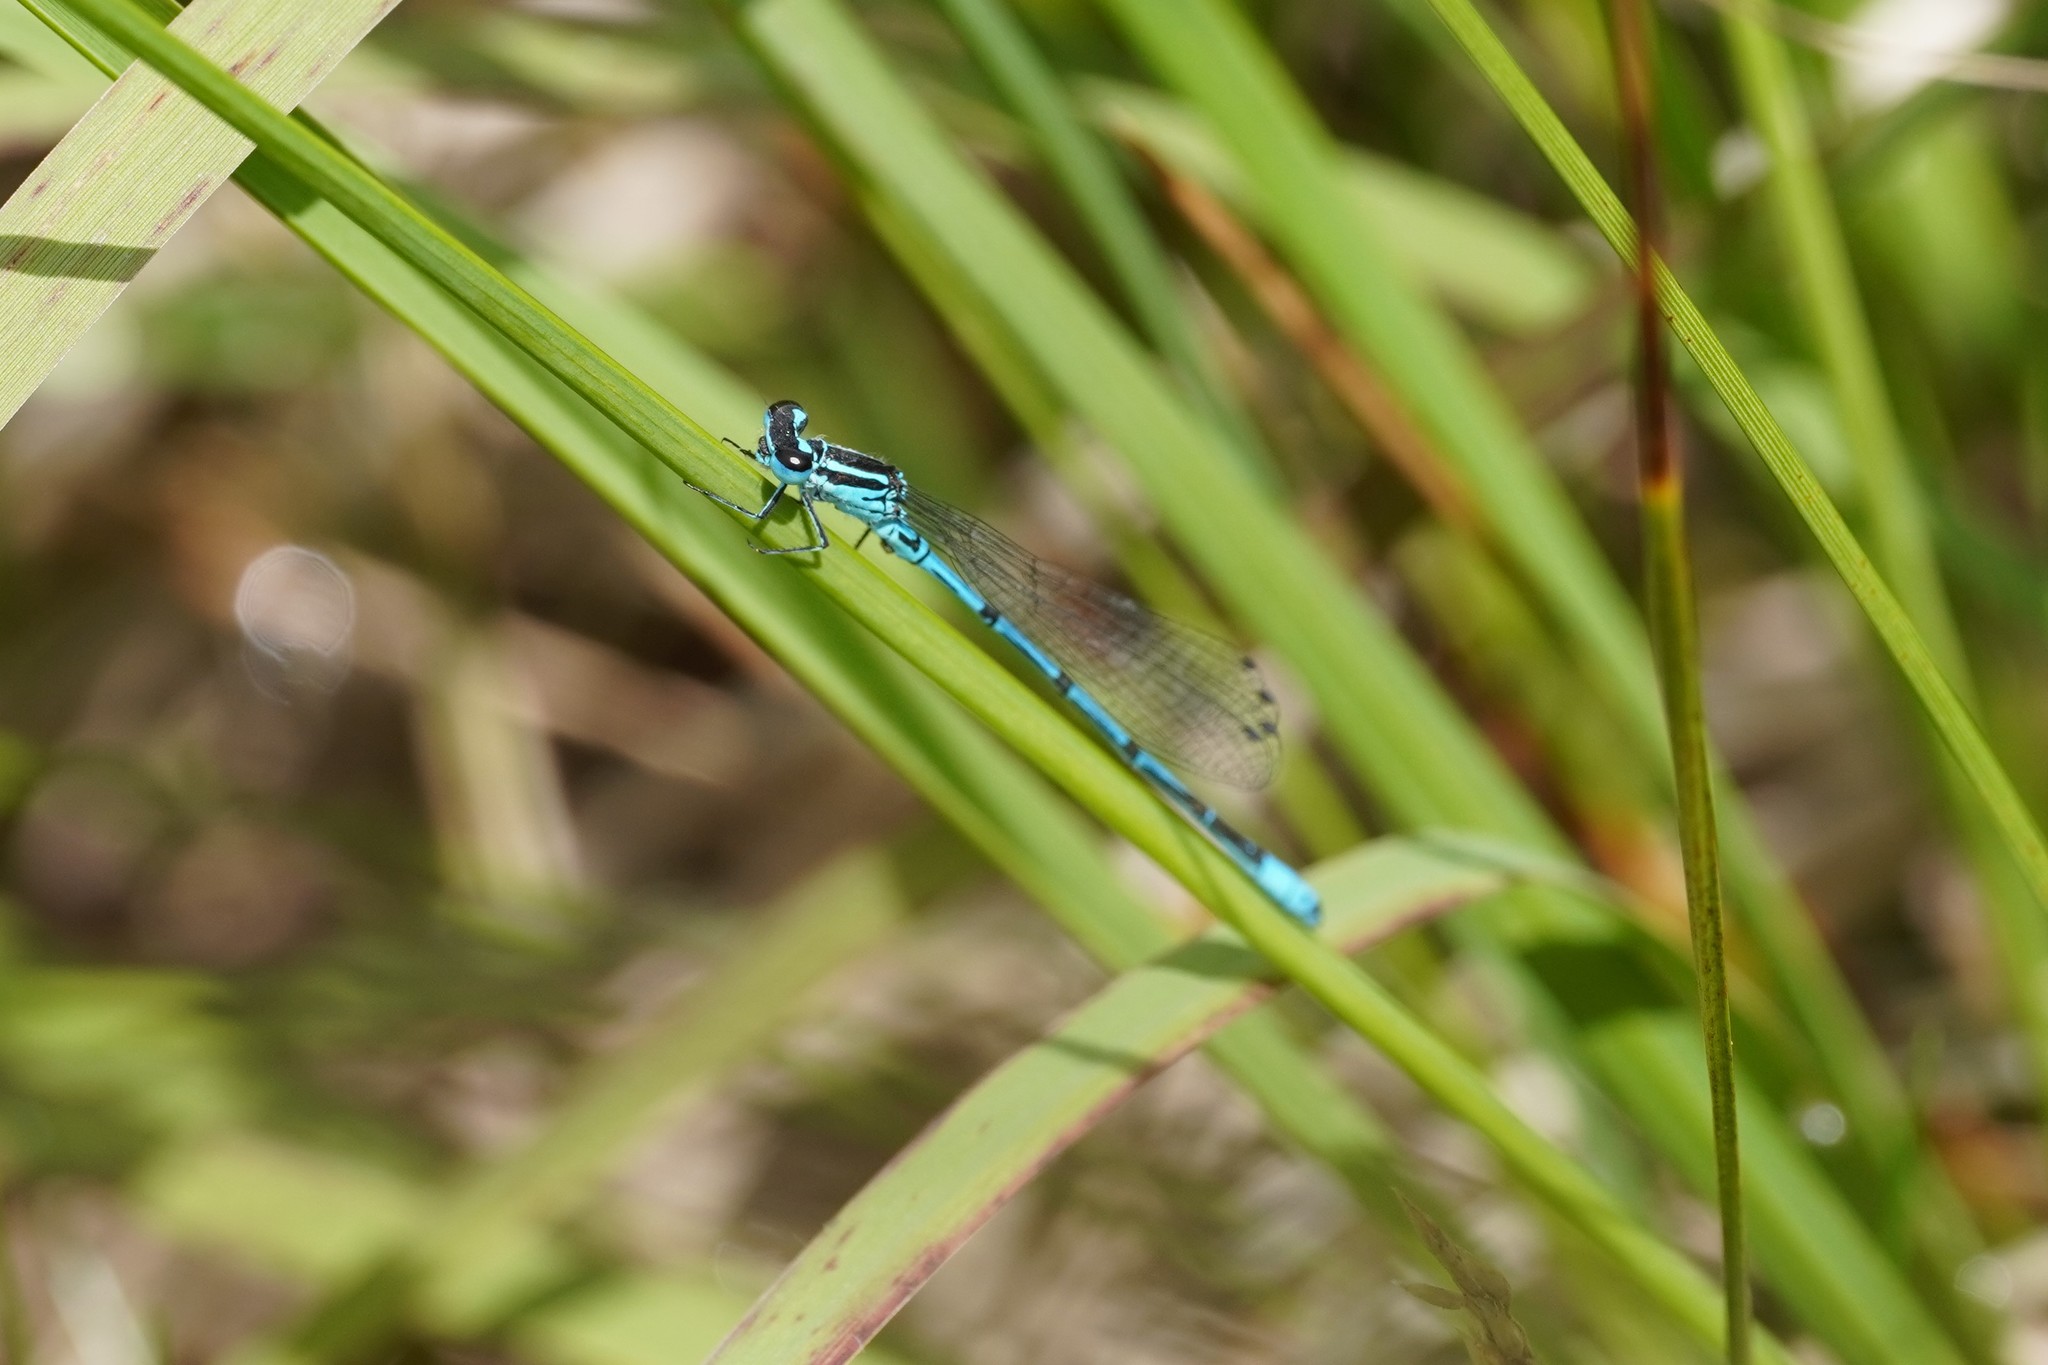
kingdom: Animalia
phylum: Arthropoda
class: Insecta
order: Odonata
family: Coenagrionidae
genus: Coenagrion
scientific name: Coenagrion puella
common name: Azure damselfly
